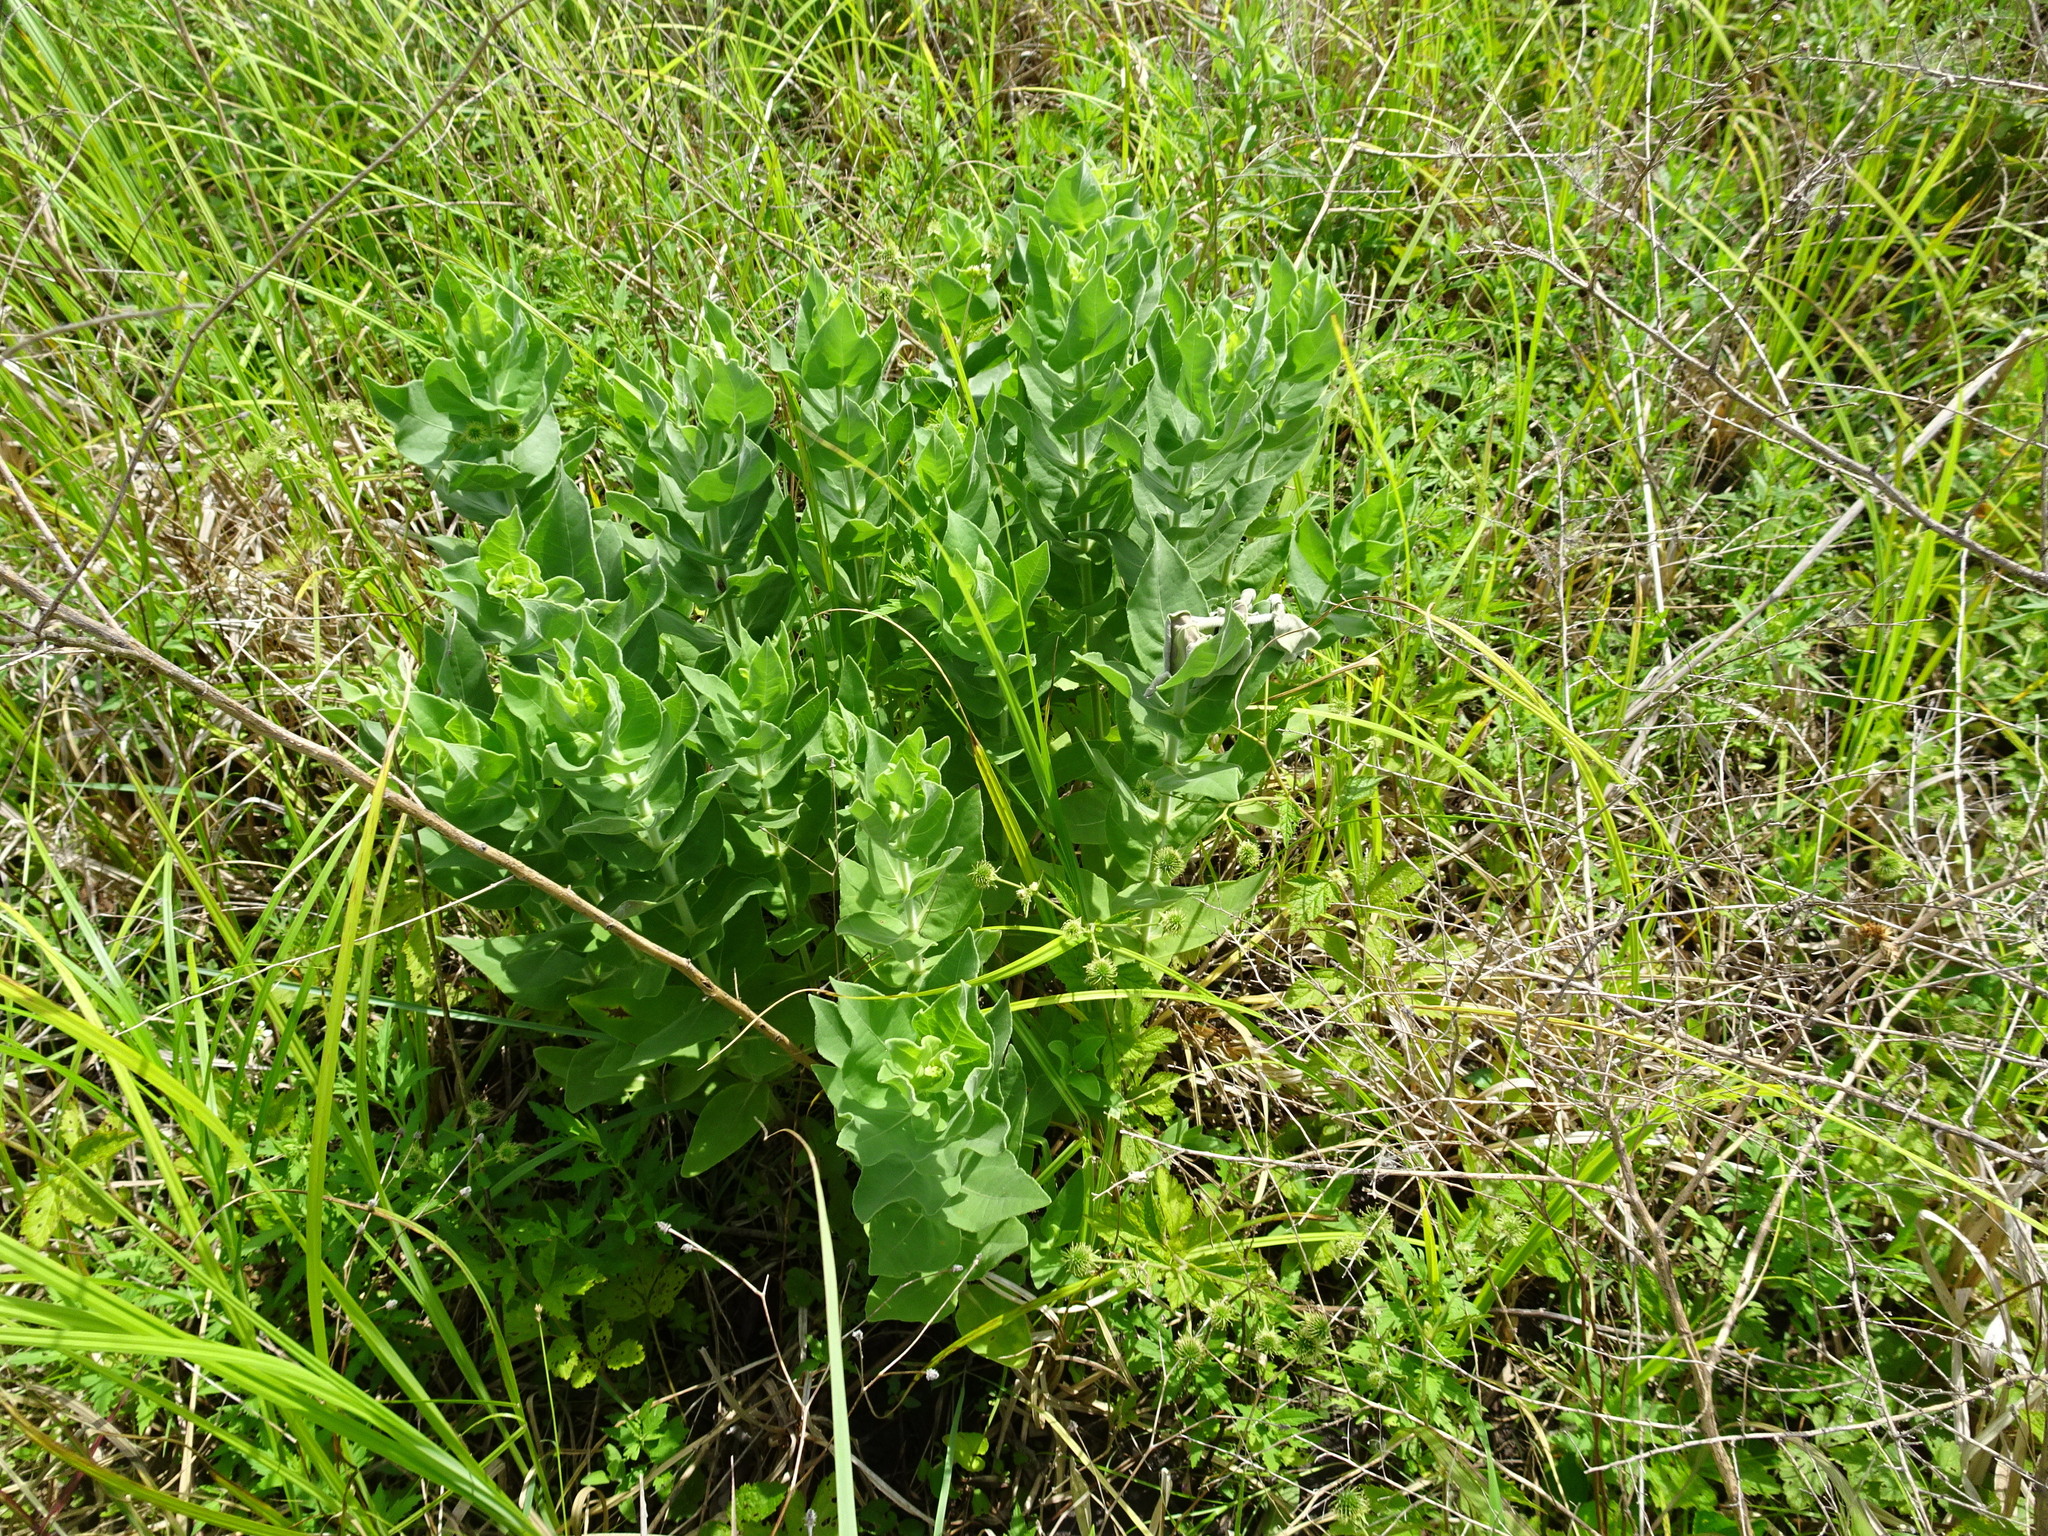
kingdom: Plantae
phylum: Tracheophyta
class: Magnoliopsida
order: Asterales
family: Asteraceae
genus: Helianthus
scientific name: Helianthus mollis
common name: Ashy sunflower
